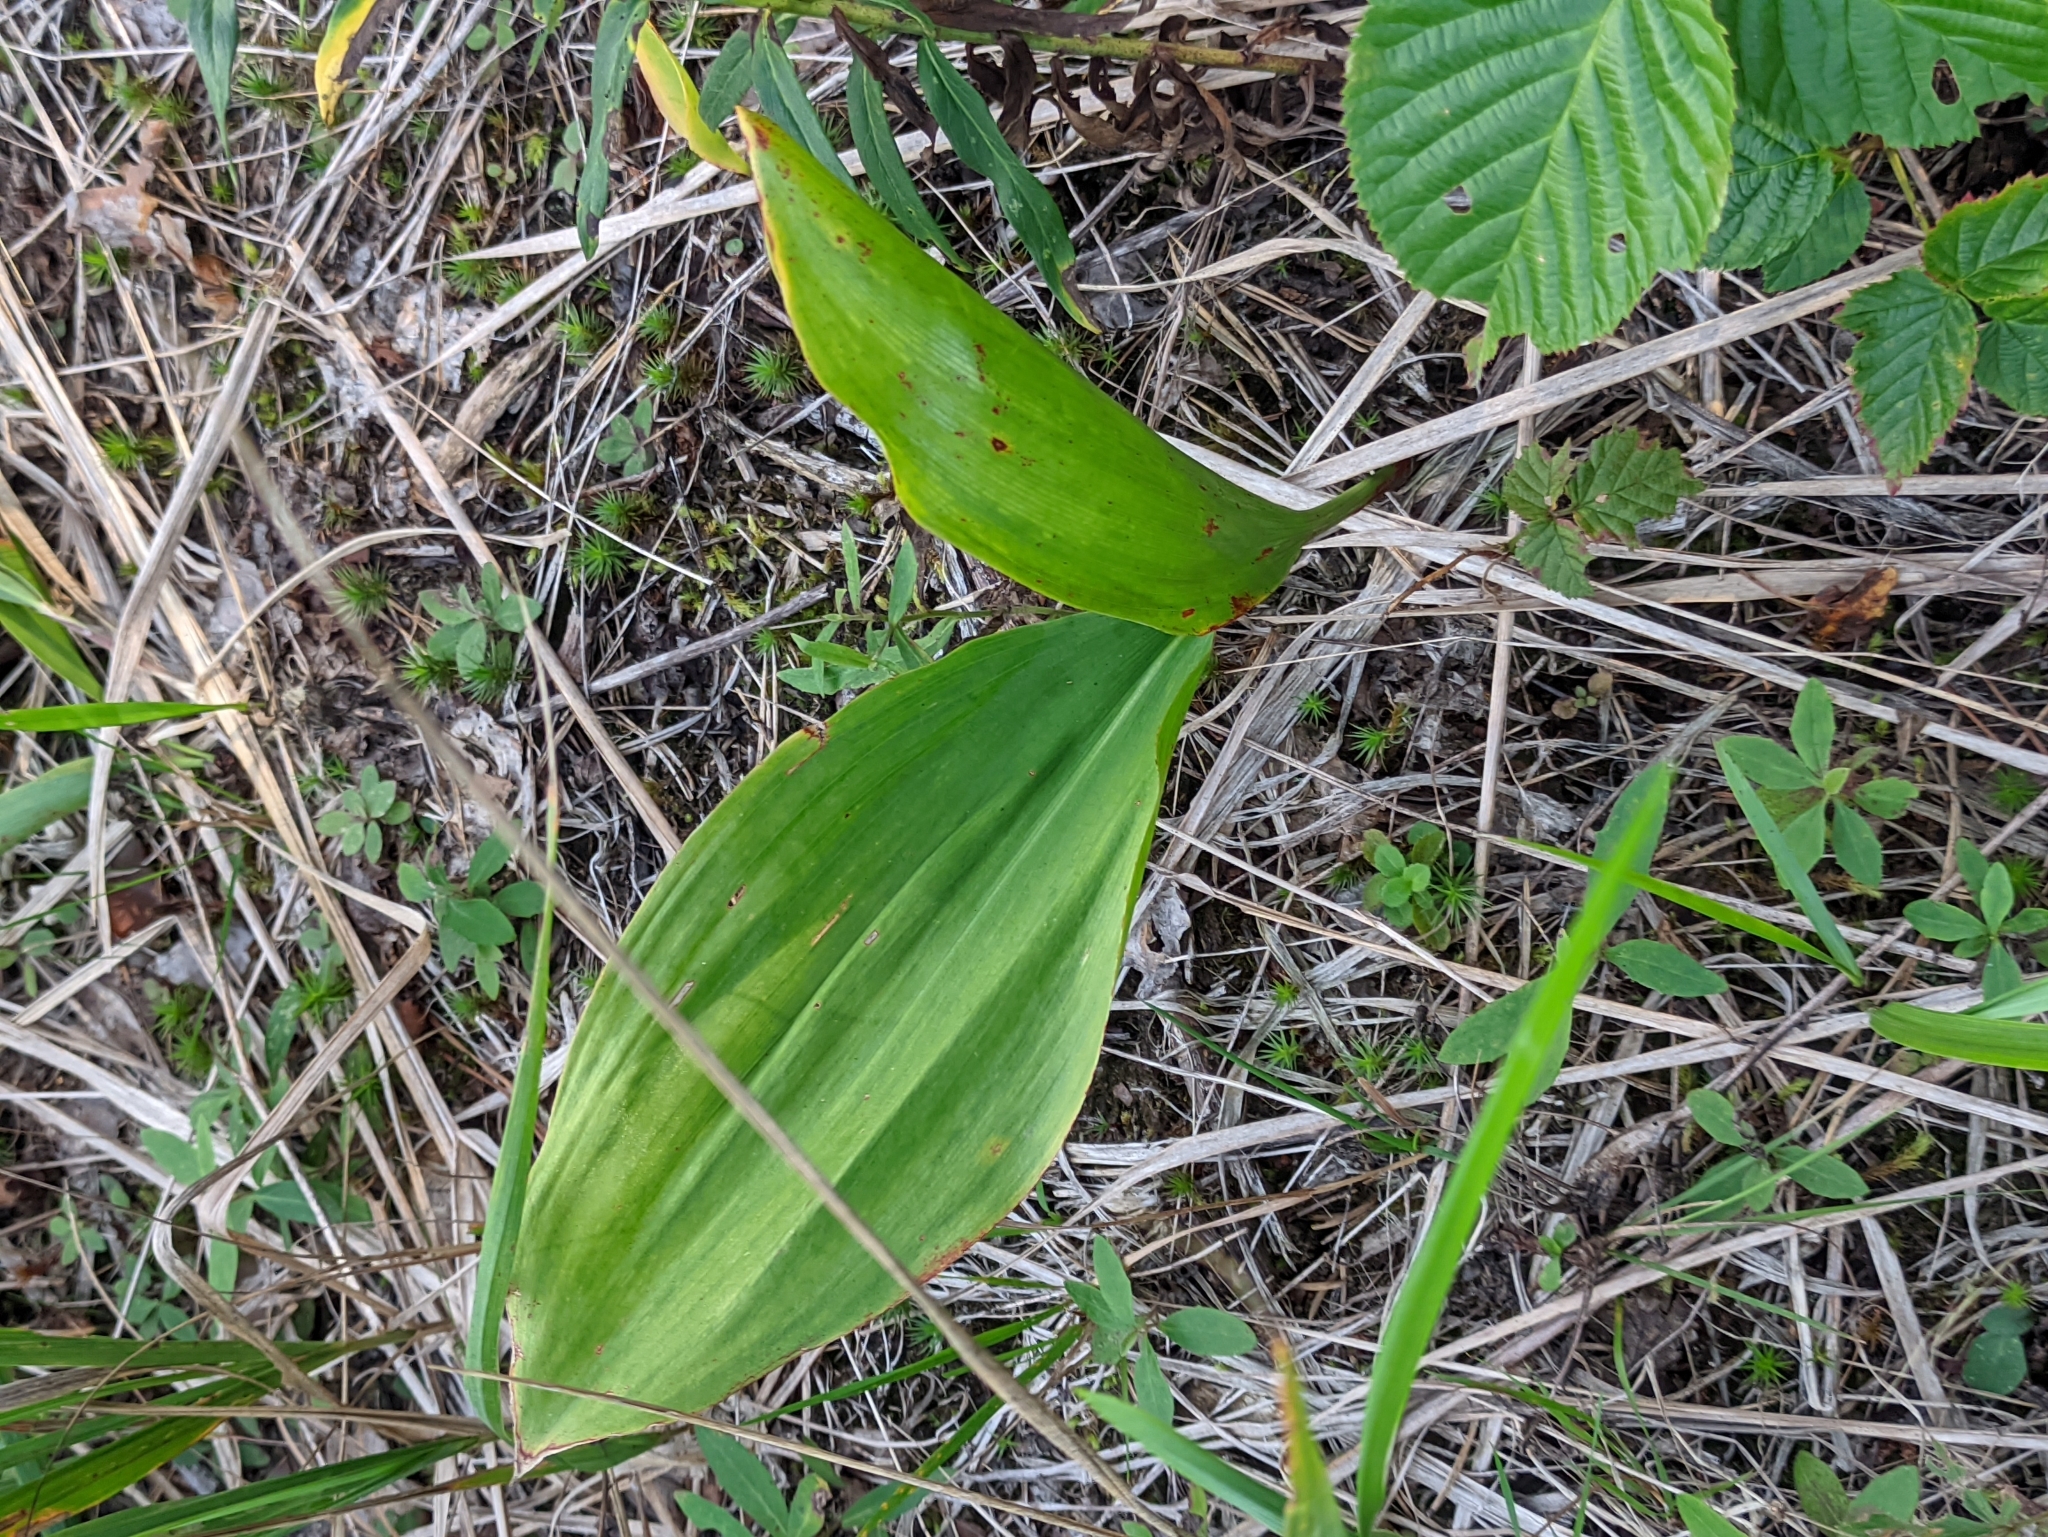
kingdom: Plantae
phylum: Tracheophyta
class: Liliopsida
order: Asparagales
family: Asparagaceae
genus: Convallaria
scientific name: Convallaria majalis
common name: Lily-of-the-valley
